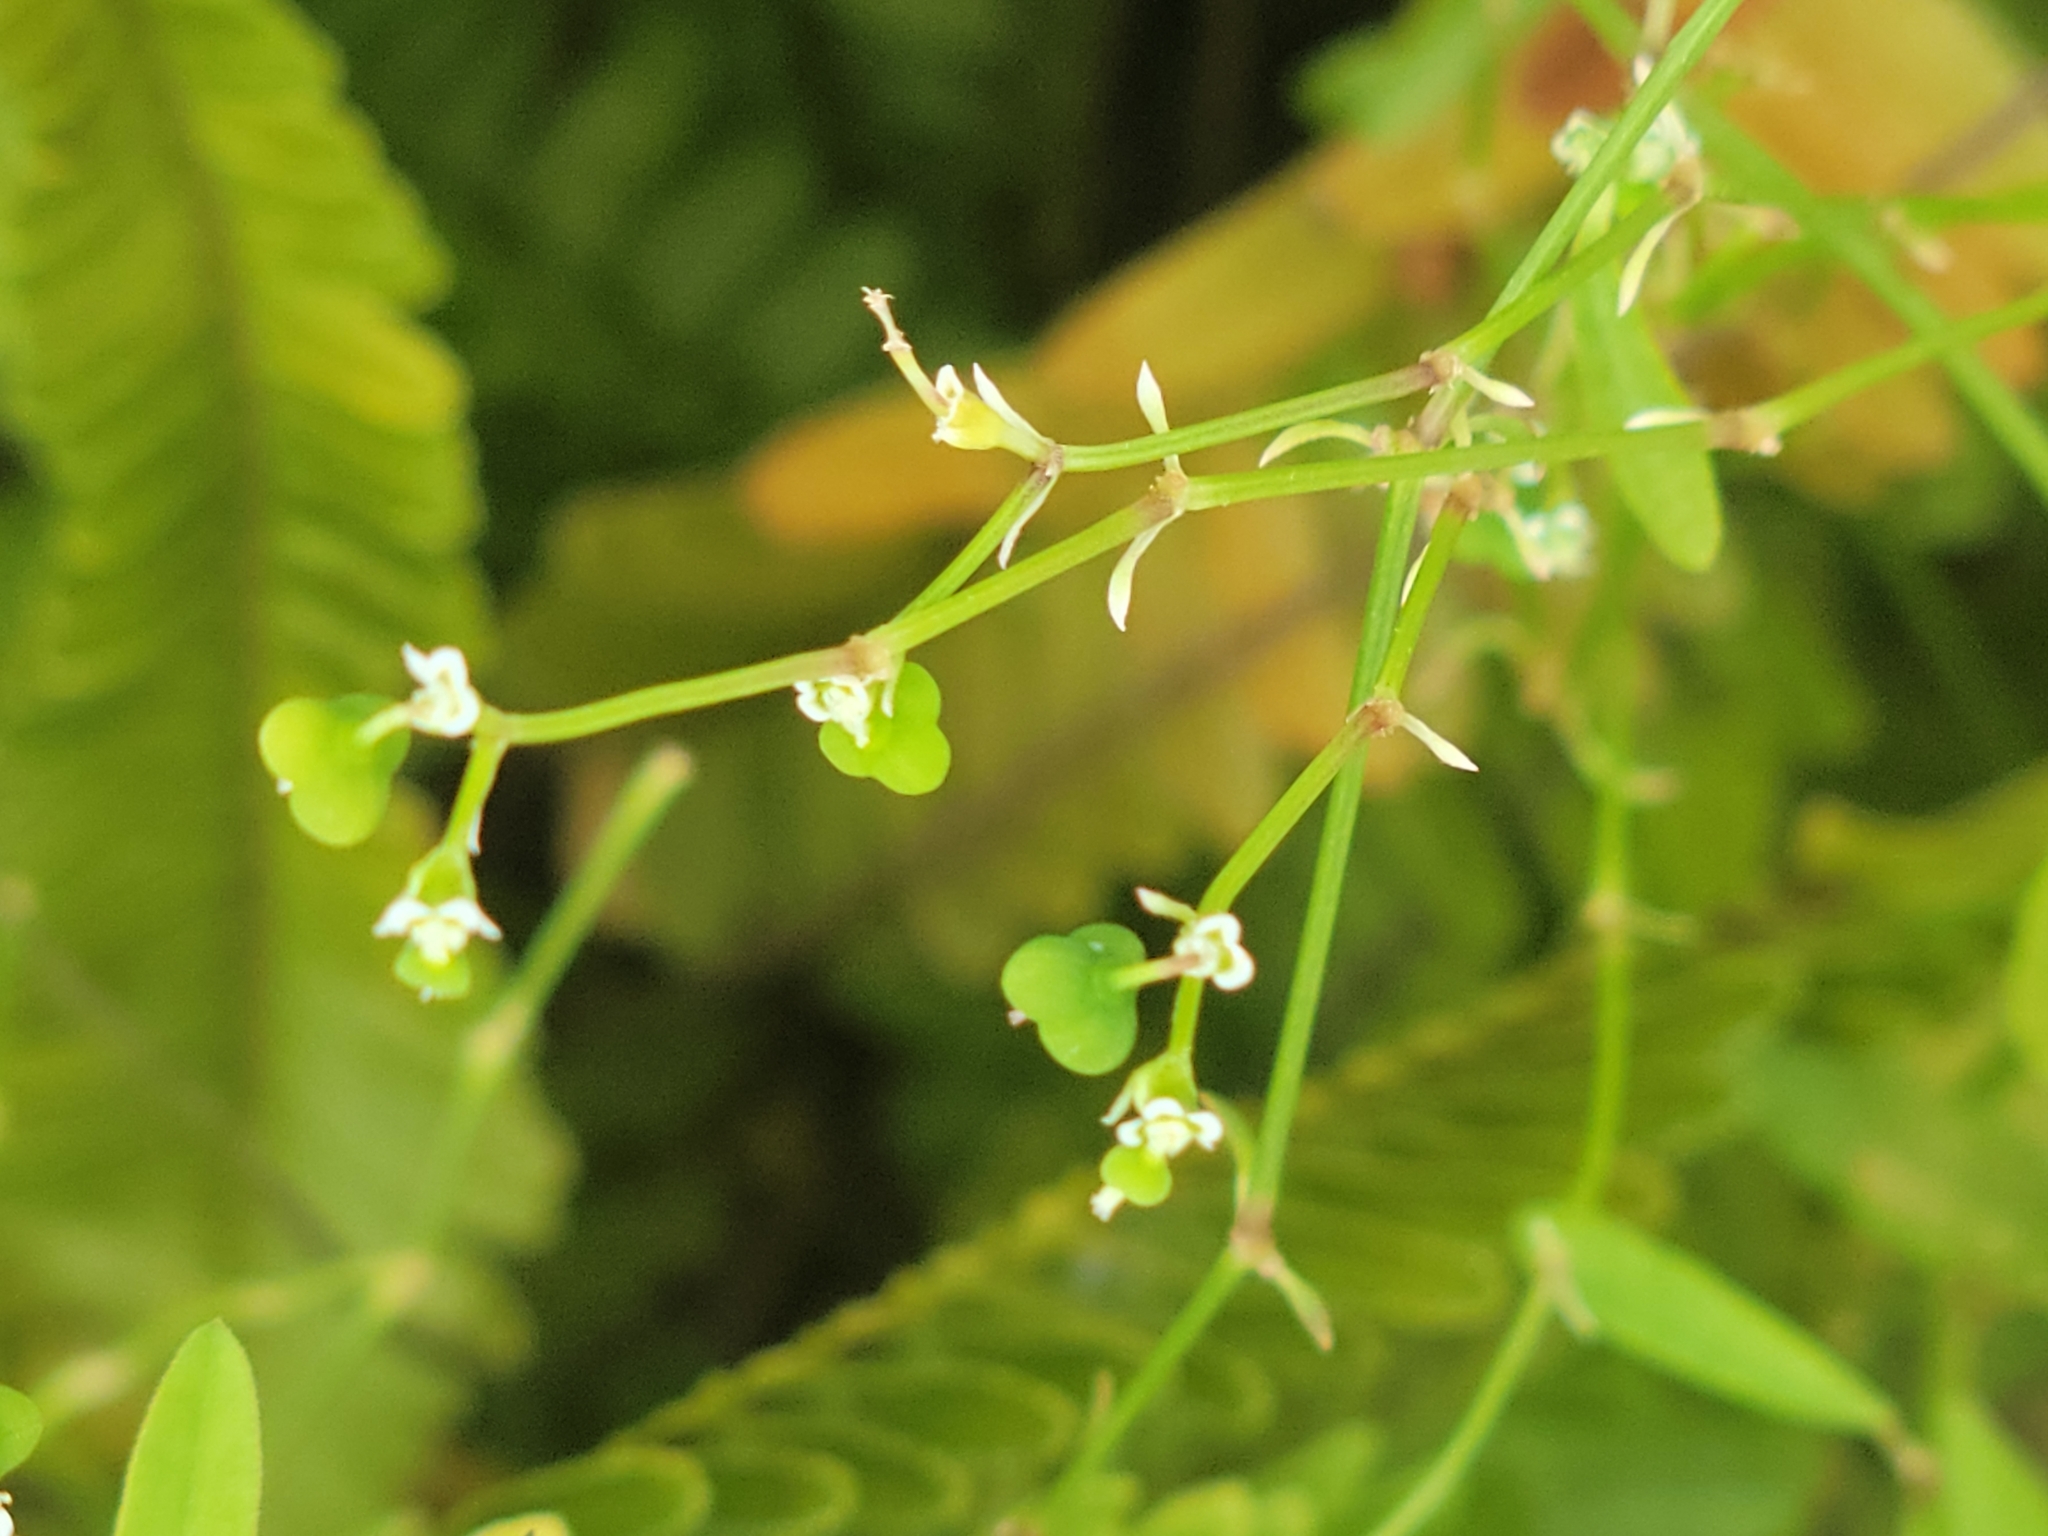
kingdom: Plantae
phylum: Tracheophyta
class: Magnoliopsida
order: Malpighiales
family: Euphorbiaceae
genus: Euphorbia
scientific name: Euphorbia graminea
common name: Grassleaf spurge
